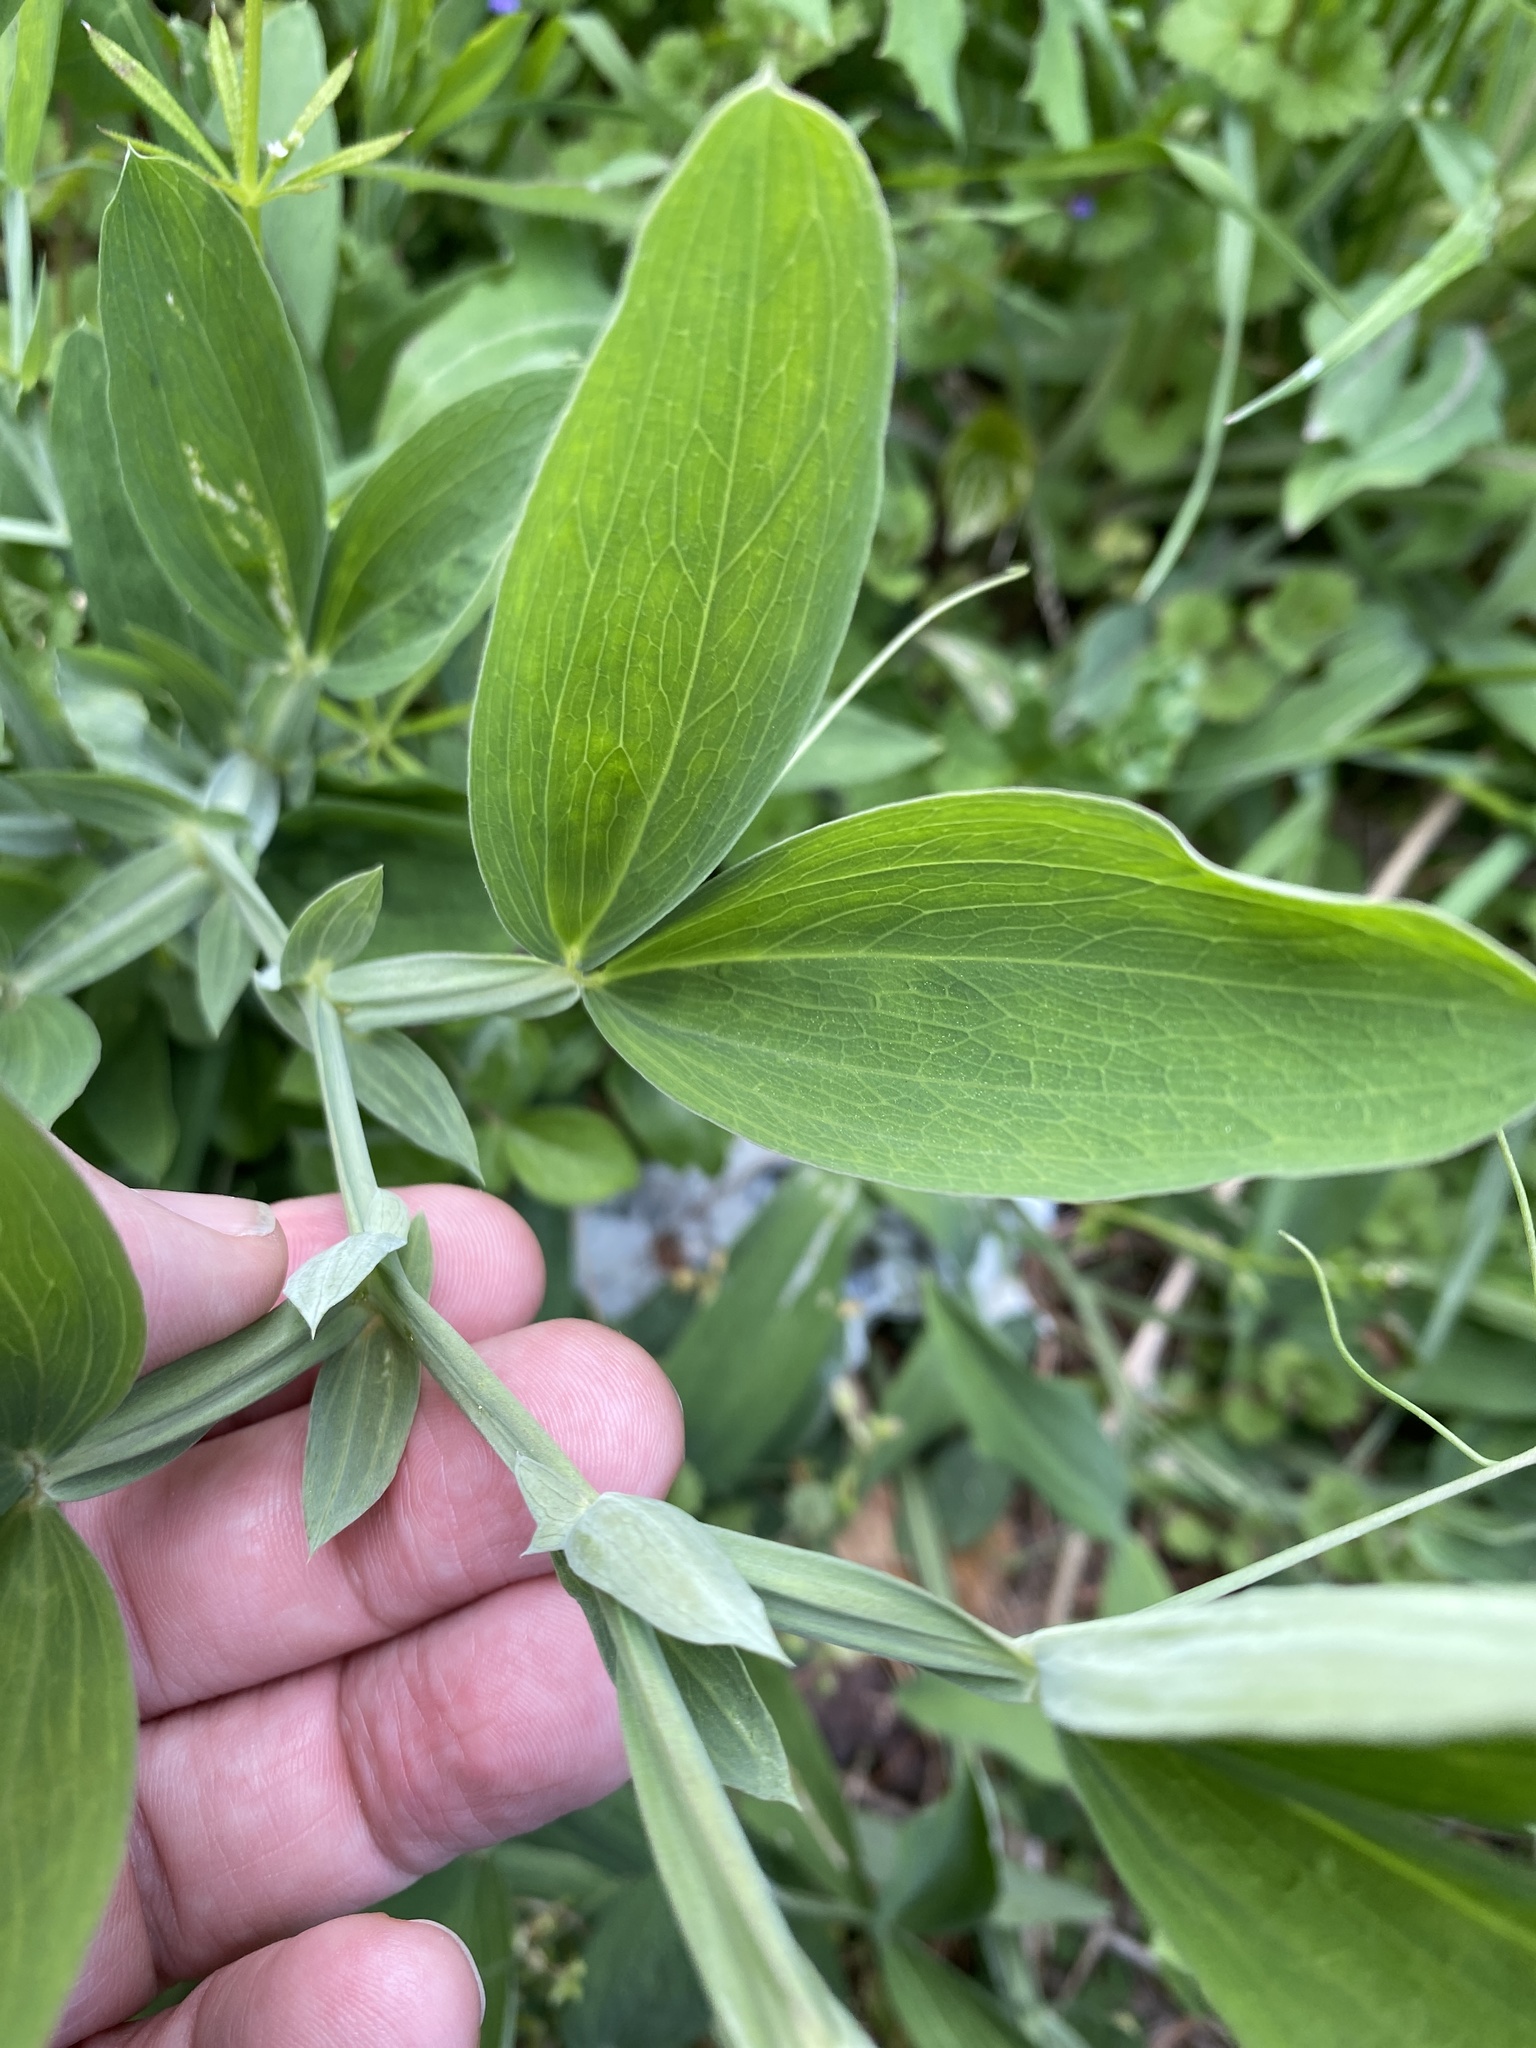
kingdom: Plantae
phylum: Tracheophyta
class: Magnoliopsida
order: Fabales
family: Fabaceae
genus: Lathyrus
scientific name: Lathyrus latifolius
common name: Perennial pea
